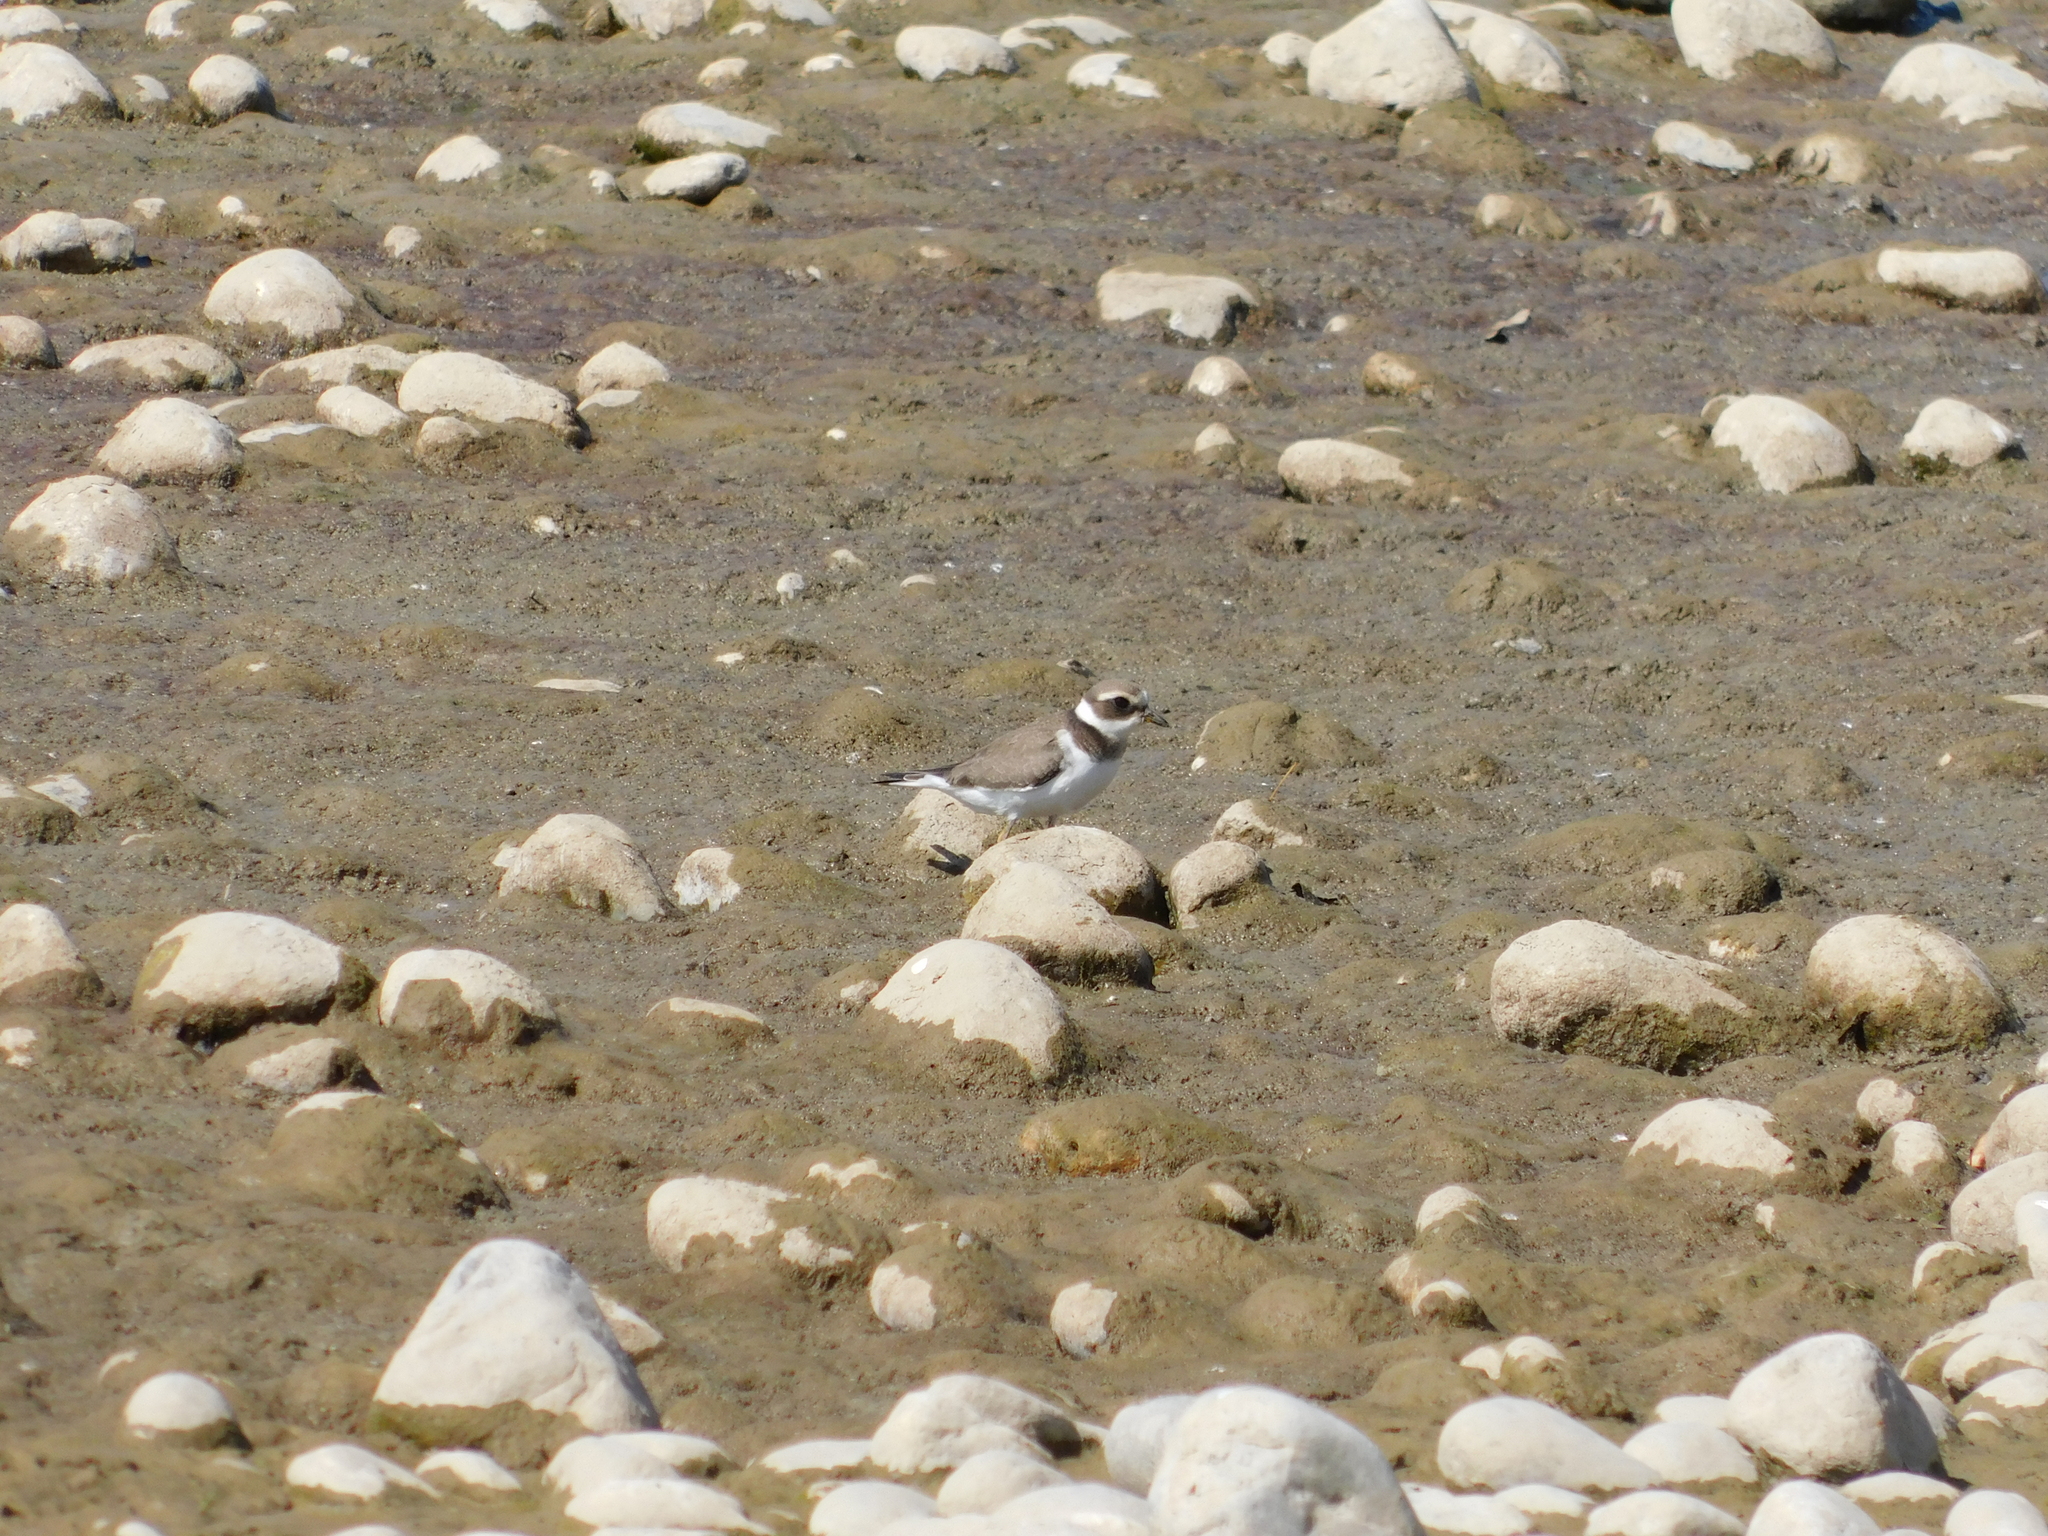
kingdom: Animalia
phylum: Chordata
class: Aves
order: Charadriiformes
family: Charadriidae
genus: Charadrius
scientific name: Charadrius hiaticula
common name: Common ringed plover
